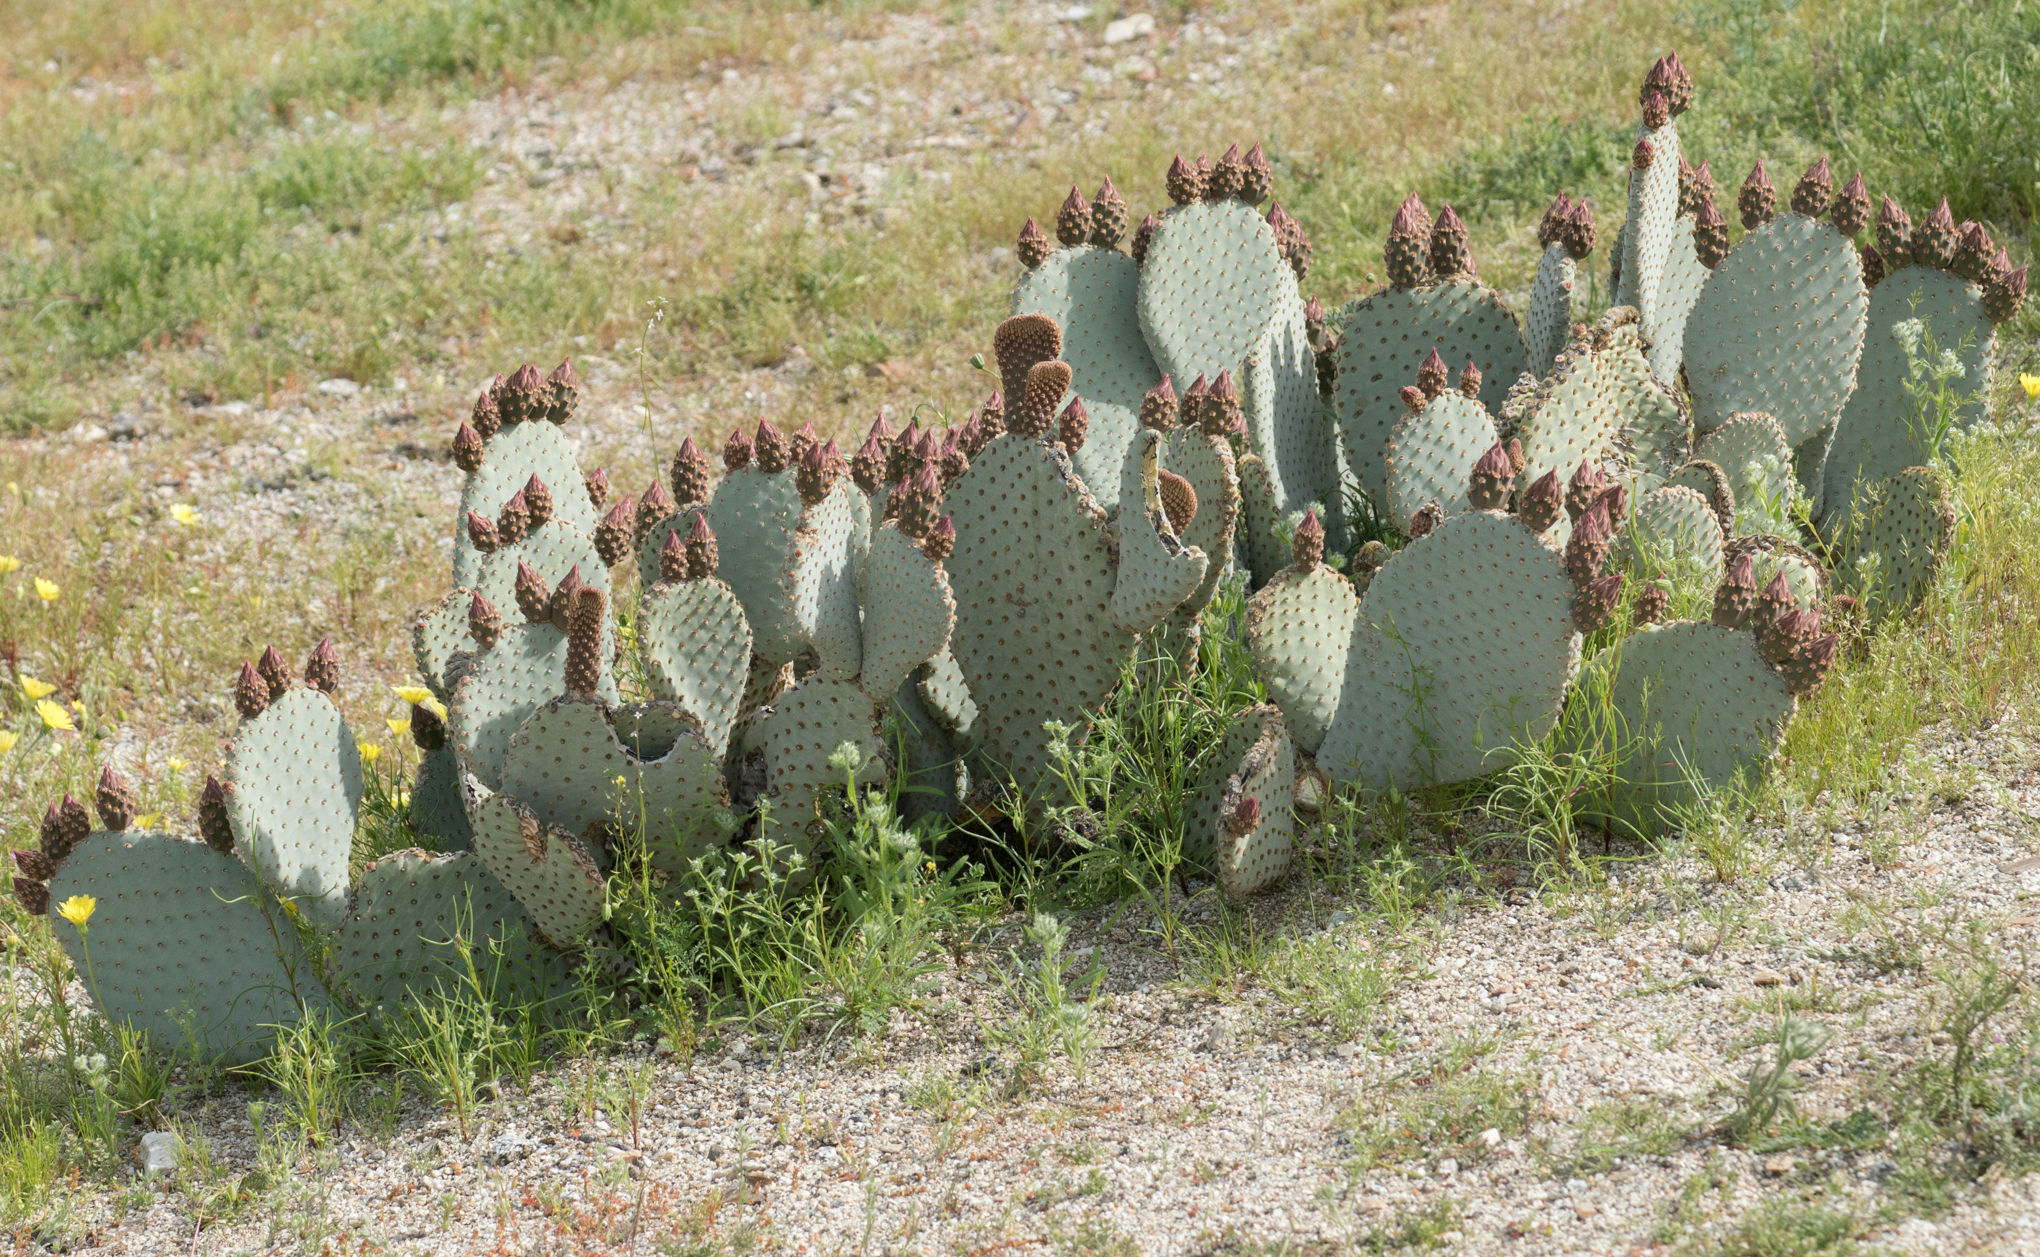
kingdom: Plantae
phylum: Tracheophyta
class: Magnoliopsida
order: Caryophyllales
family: Cactaceae
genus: Opuntia
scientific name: Opuntia basilaris
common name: Beavertail prickly-pear
